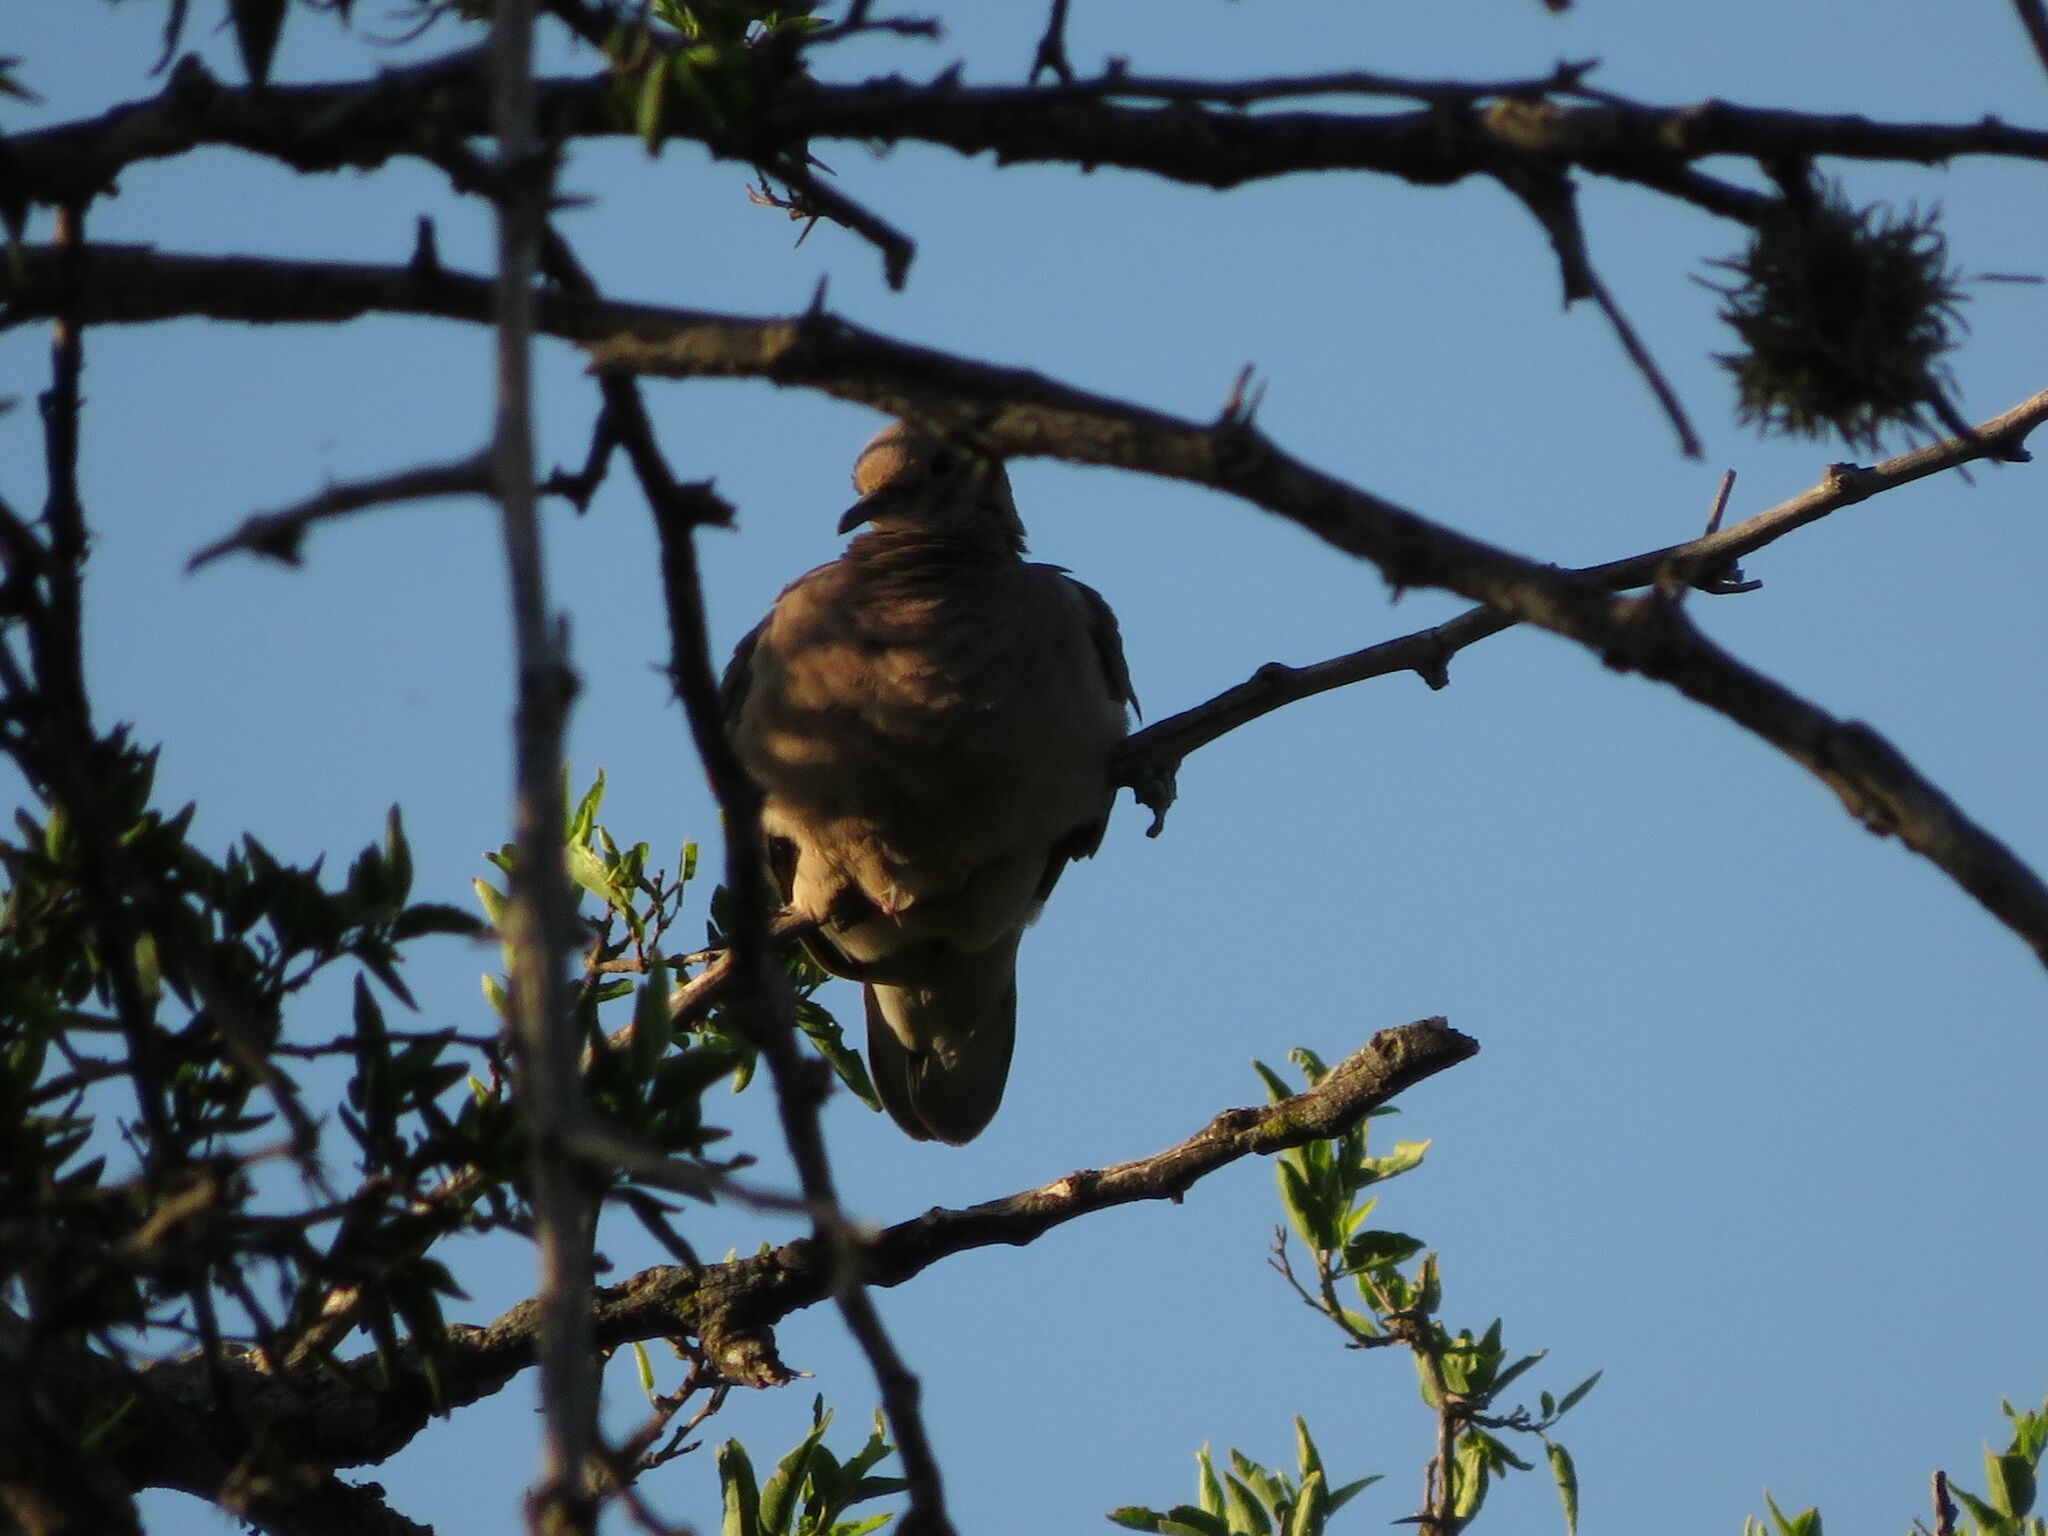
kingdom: Animalia
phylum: Chordata
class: Aves
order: Columbiformes
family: Columbidae
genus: Zenaida
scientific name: Zenaida auriculata
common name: Eared dove
